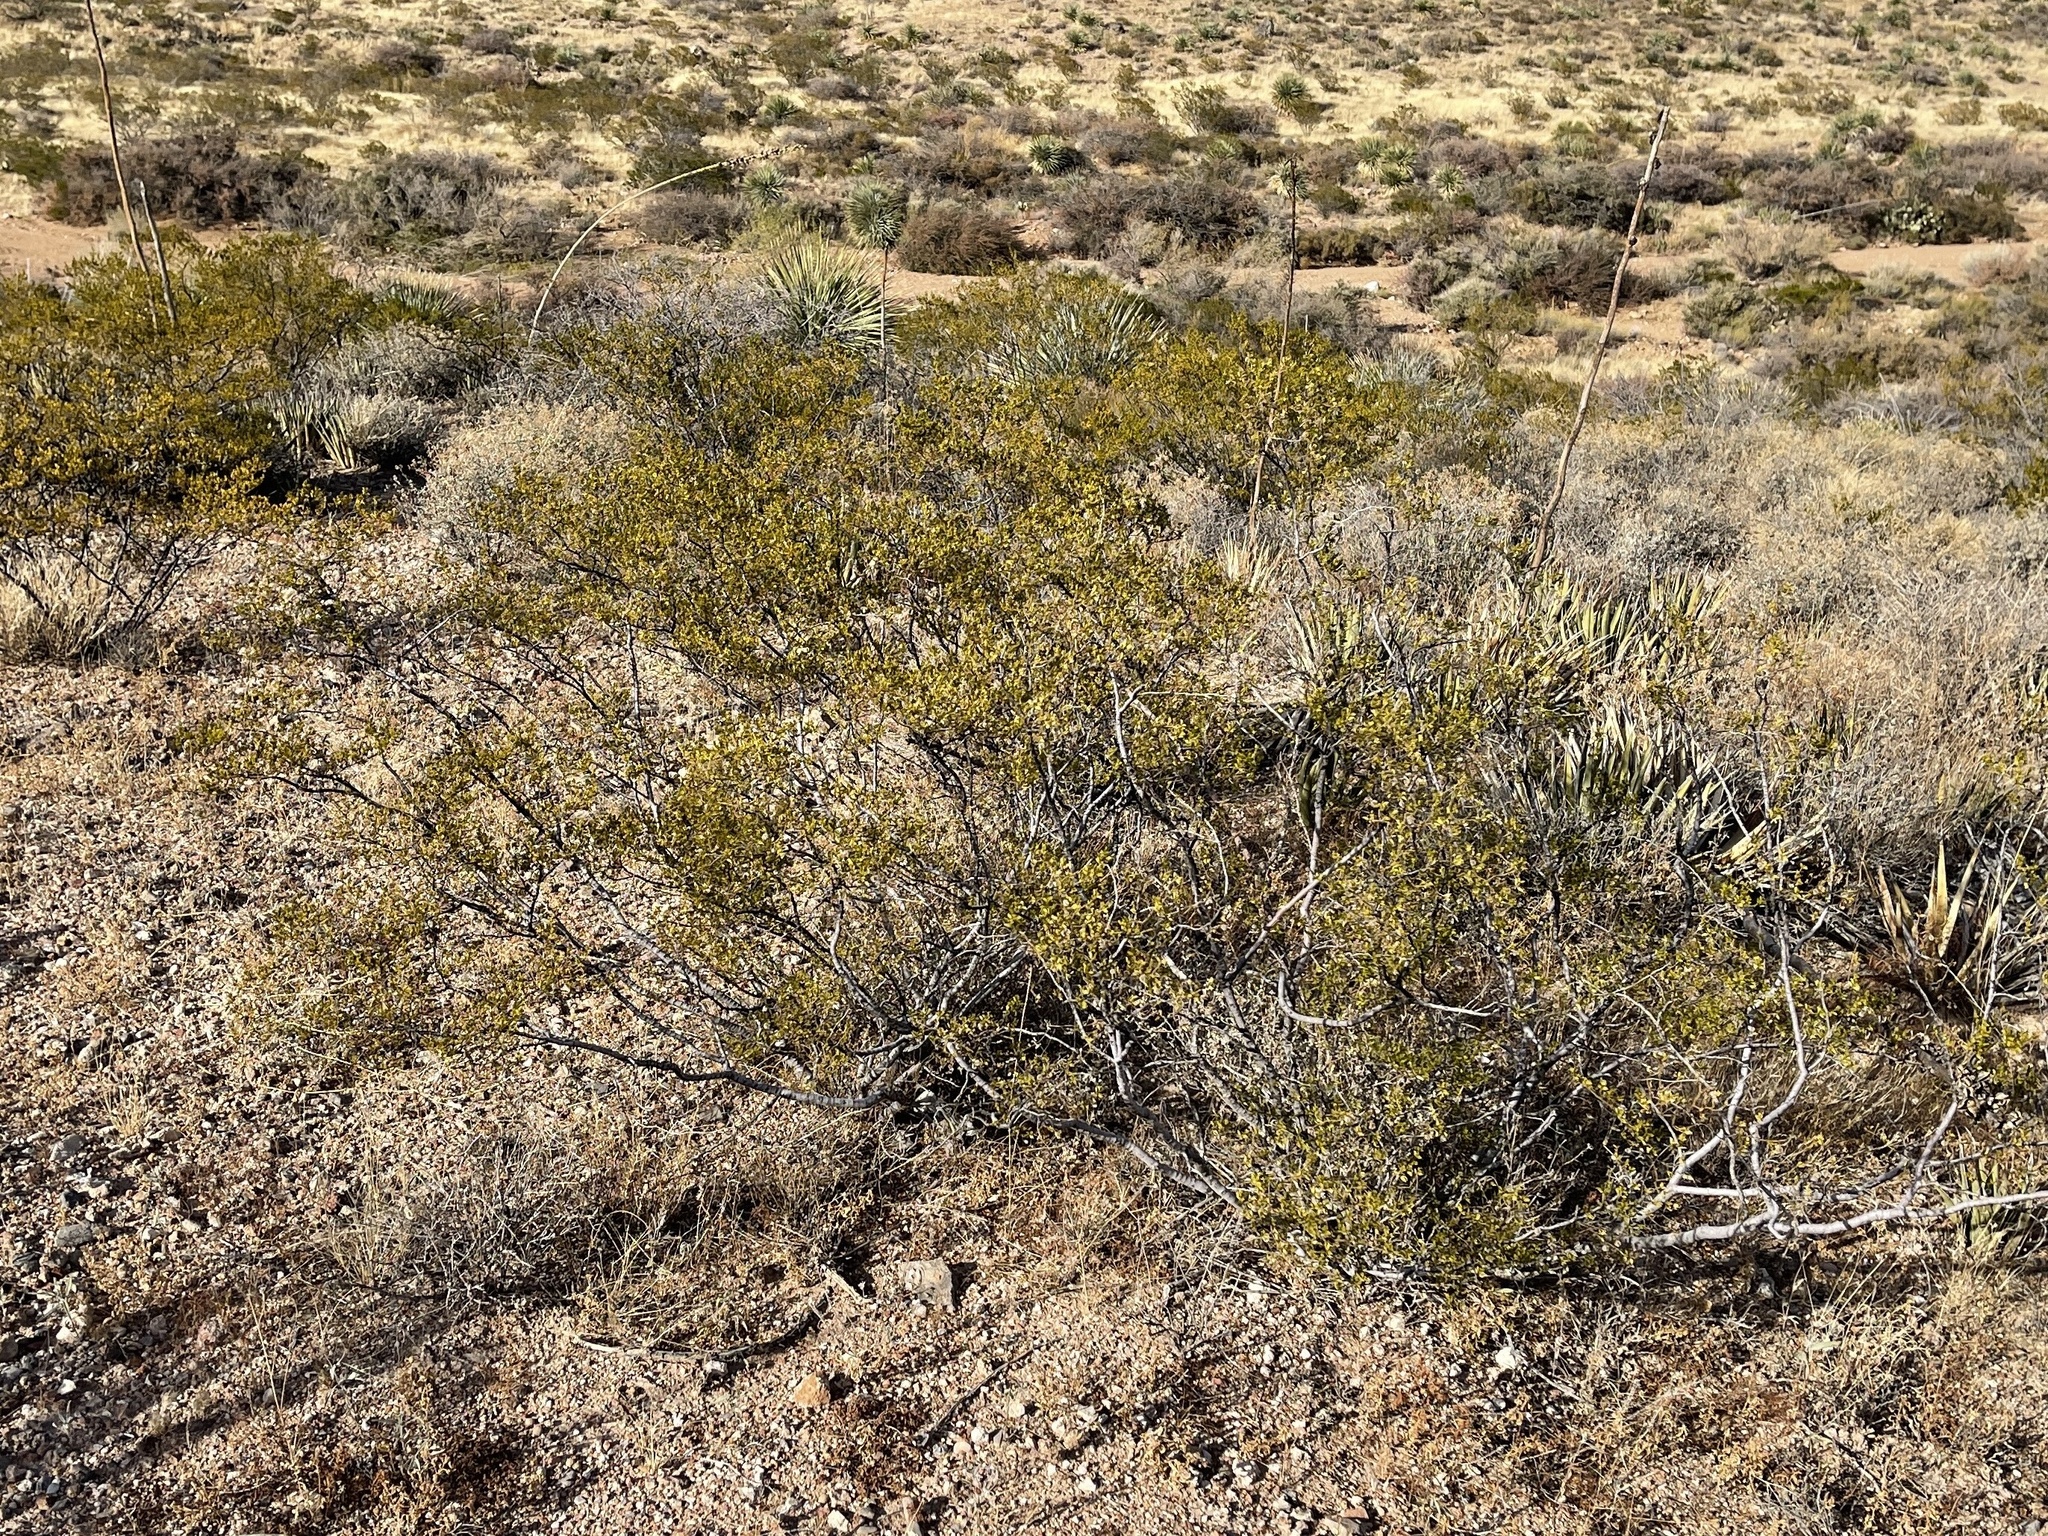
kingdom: Plantae
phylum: Tracheophyta
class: Magnoliopsida
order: Zygophyllales
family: Zygophyllaceae
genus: Larrea
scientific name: Larrea tridentata
